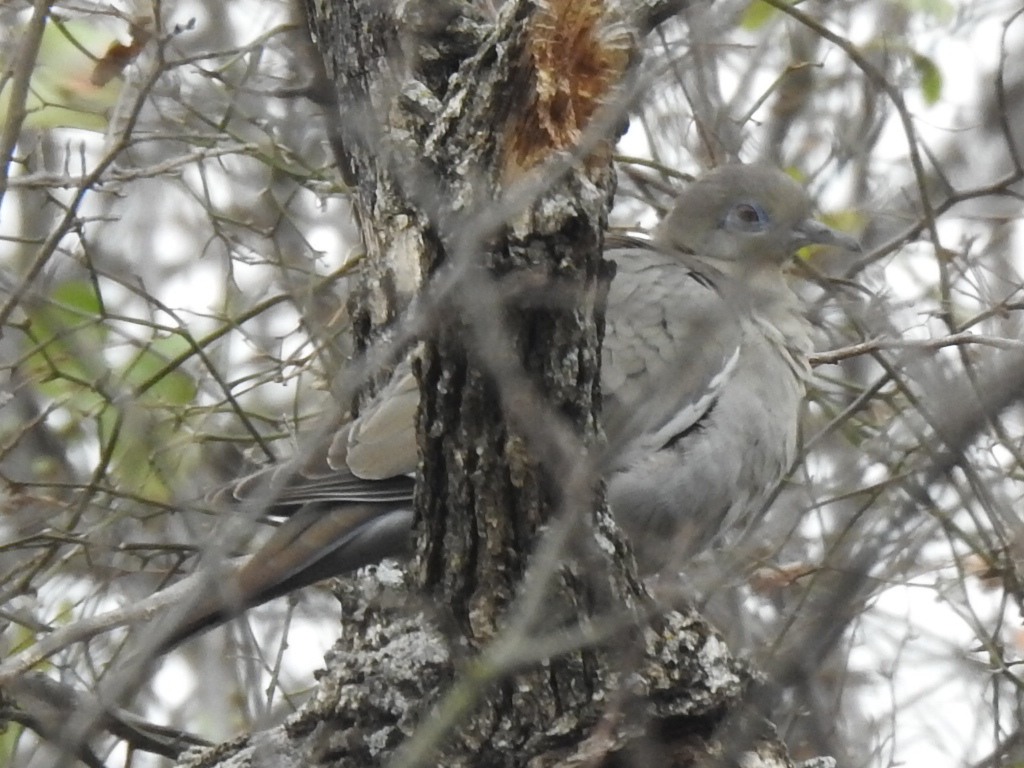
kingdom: Animalia
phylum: Chordata
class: Aves
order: Columbiformes
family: Columbidae
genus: Zenaida
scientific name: Zenaida asiatica
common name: White-winged dove
